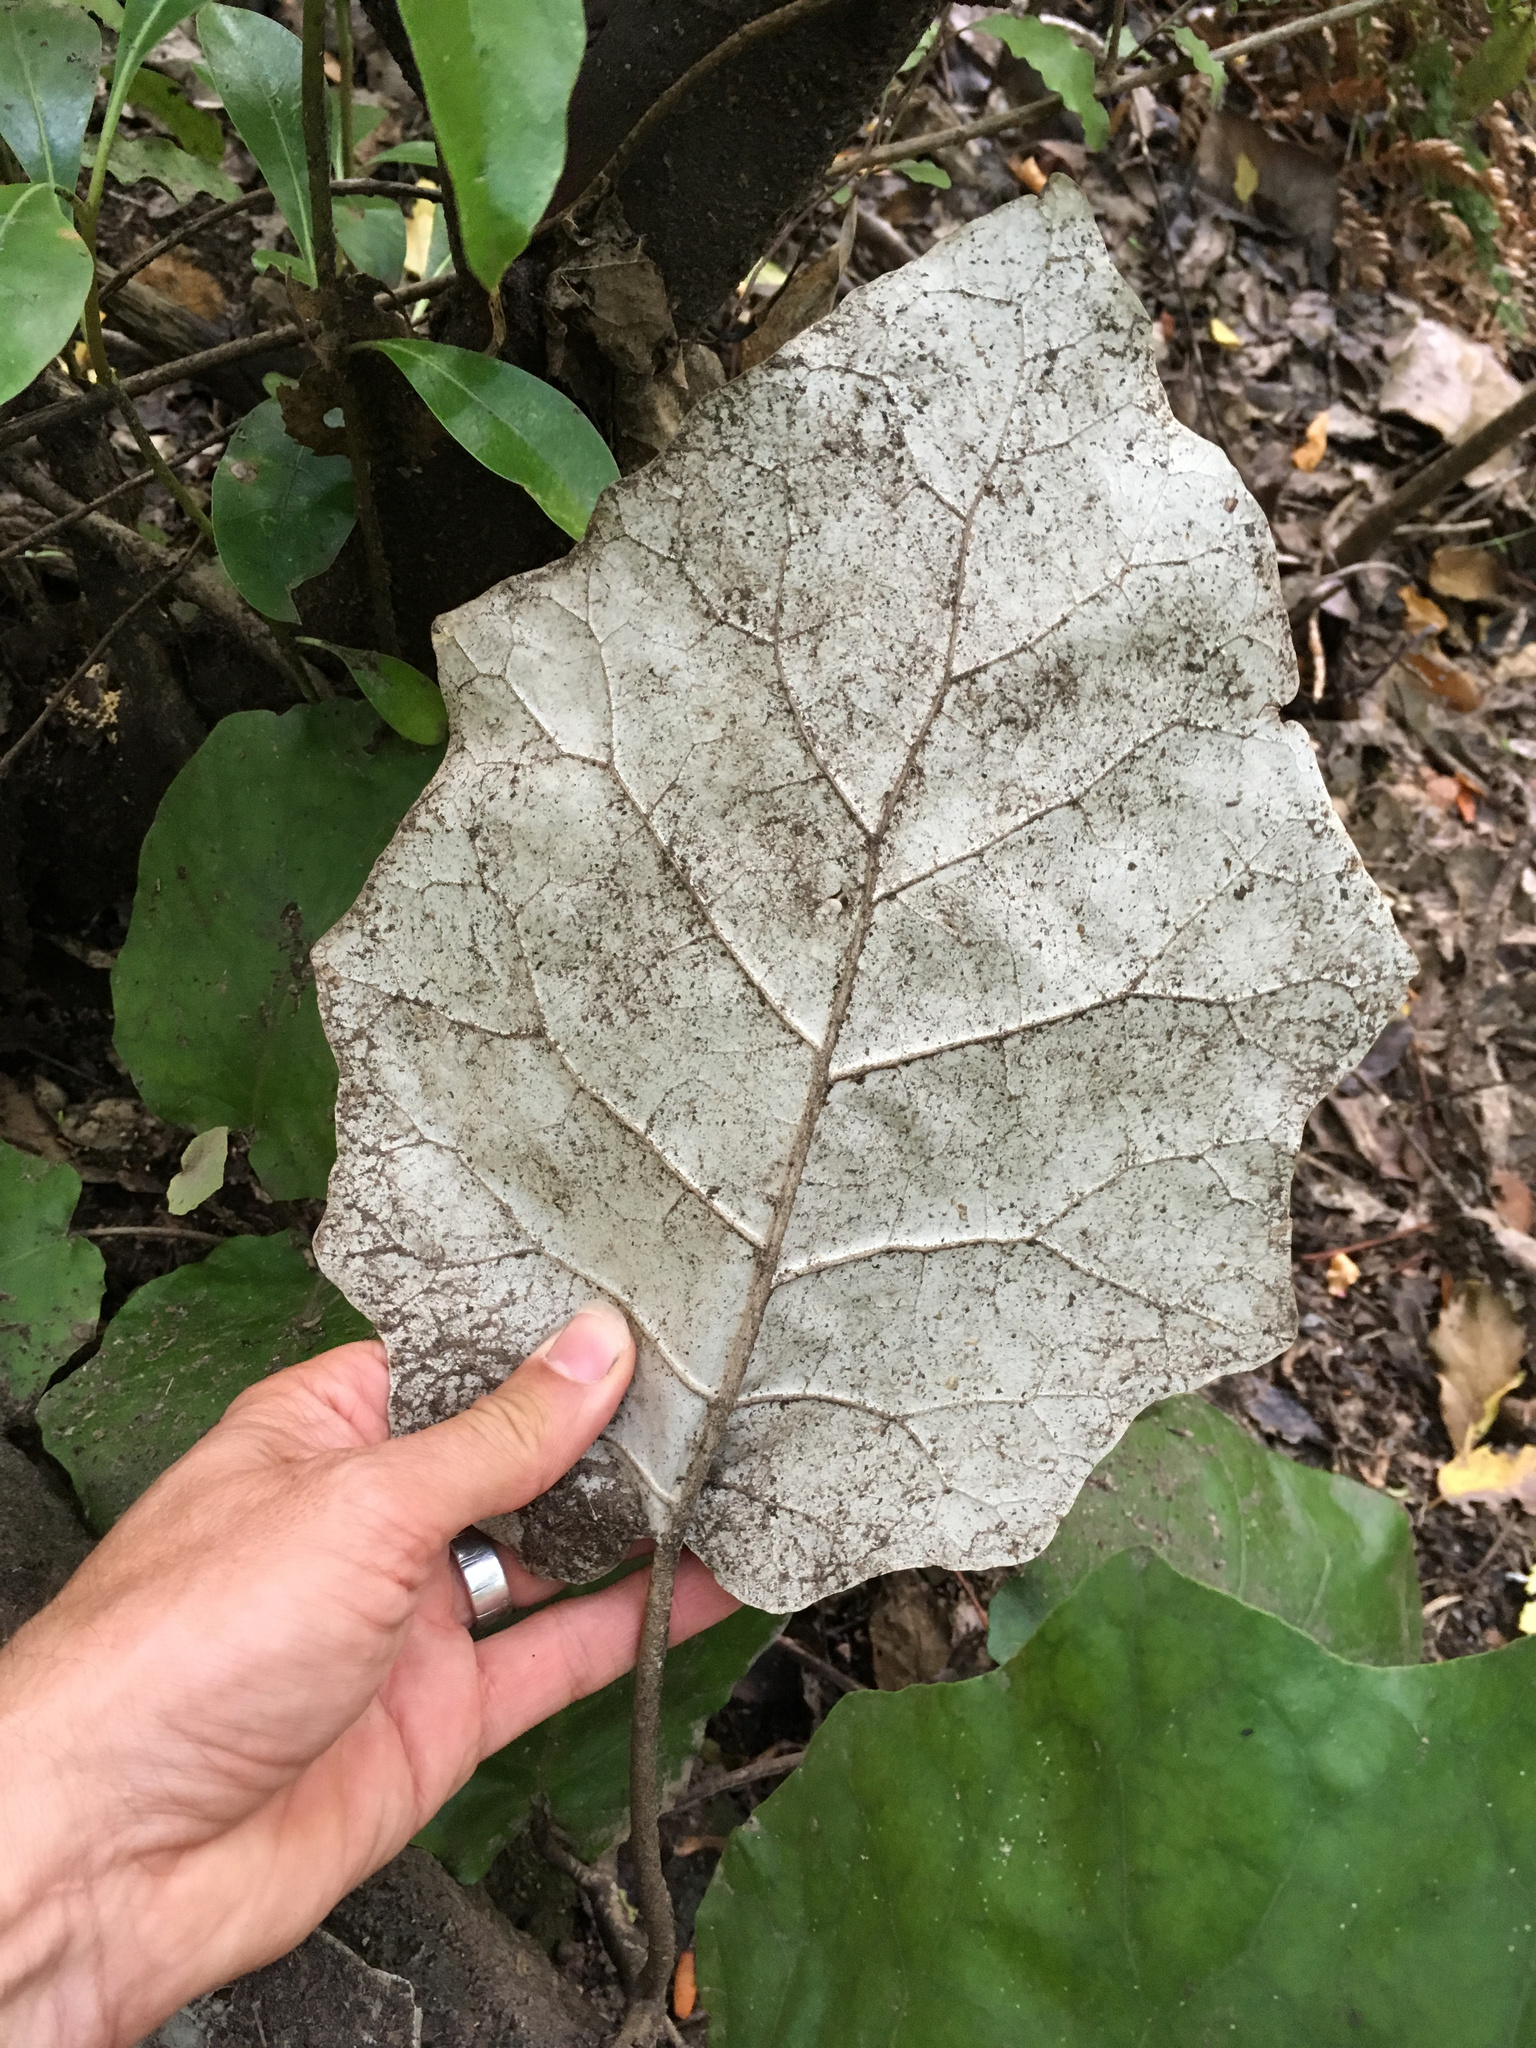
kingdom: Plantae
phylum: Tracheophyta
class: Magnoliopsida
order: Asterales
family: Asteraceae
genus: Brachyglottis
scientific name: Brachyglottis repanda
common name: Hedge ragwort
